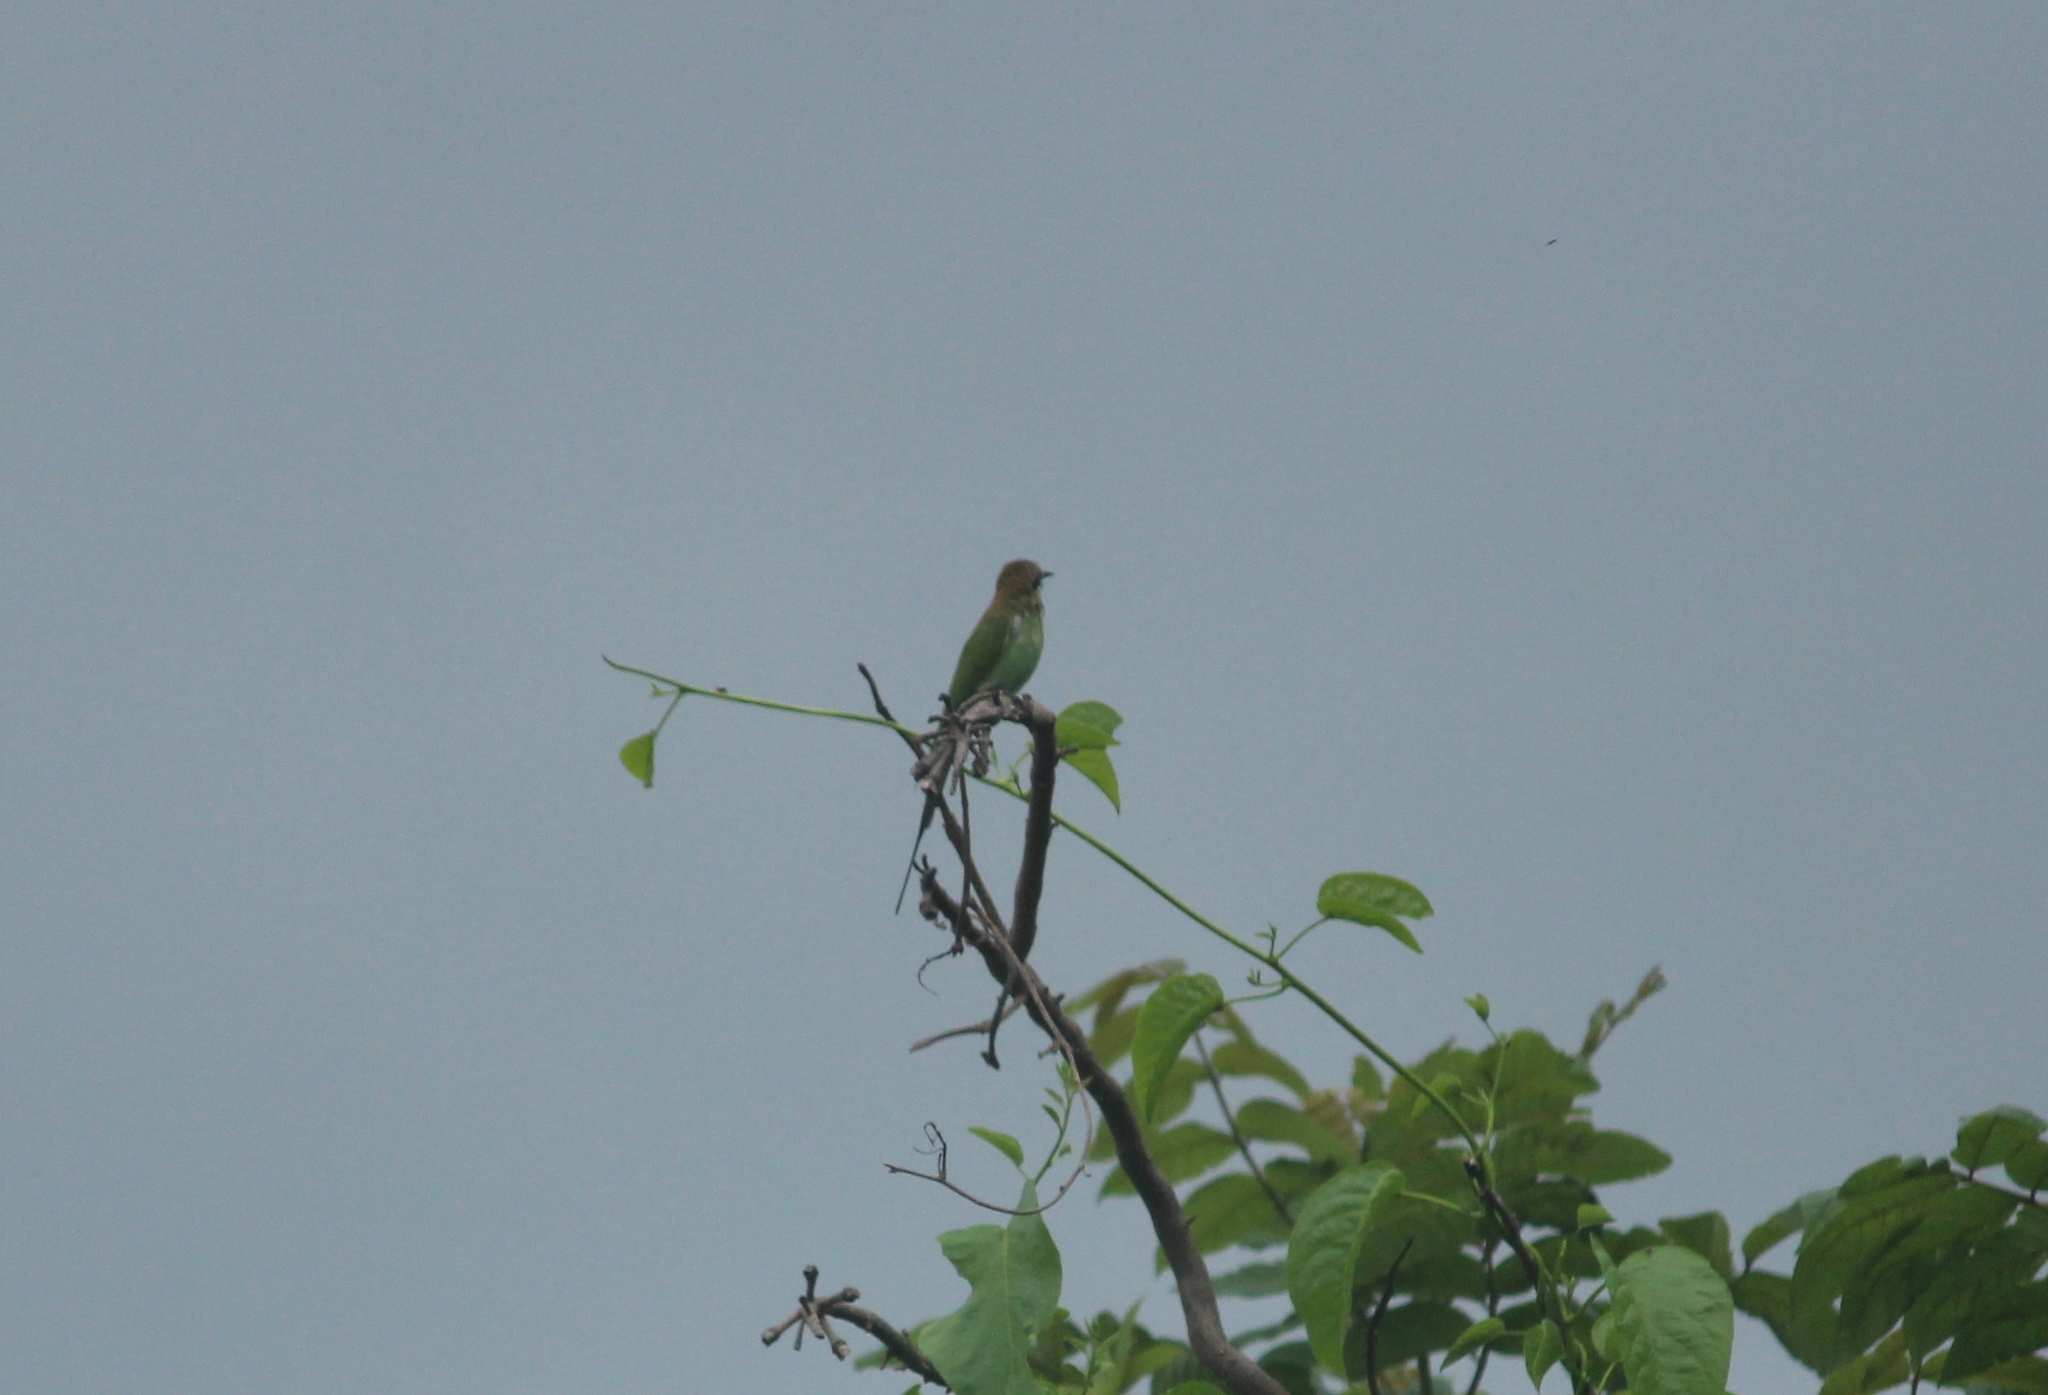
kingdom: Animalia
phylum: Chordata
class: Aves
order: Coraciiformes
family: Meropidae
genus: Merops
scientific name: Merops orientalis
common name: Green bee-eater
